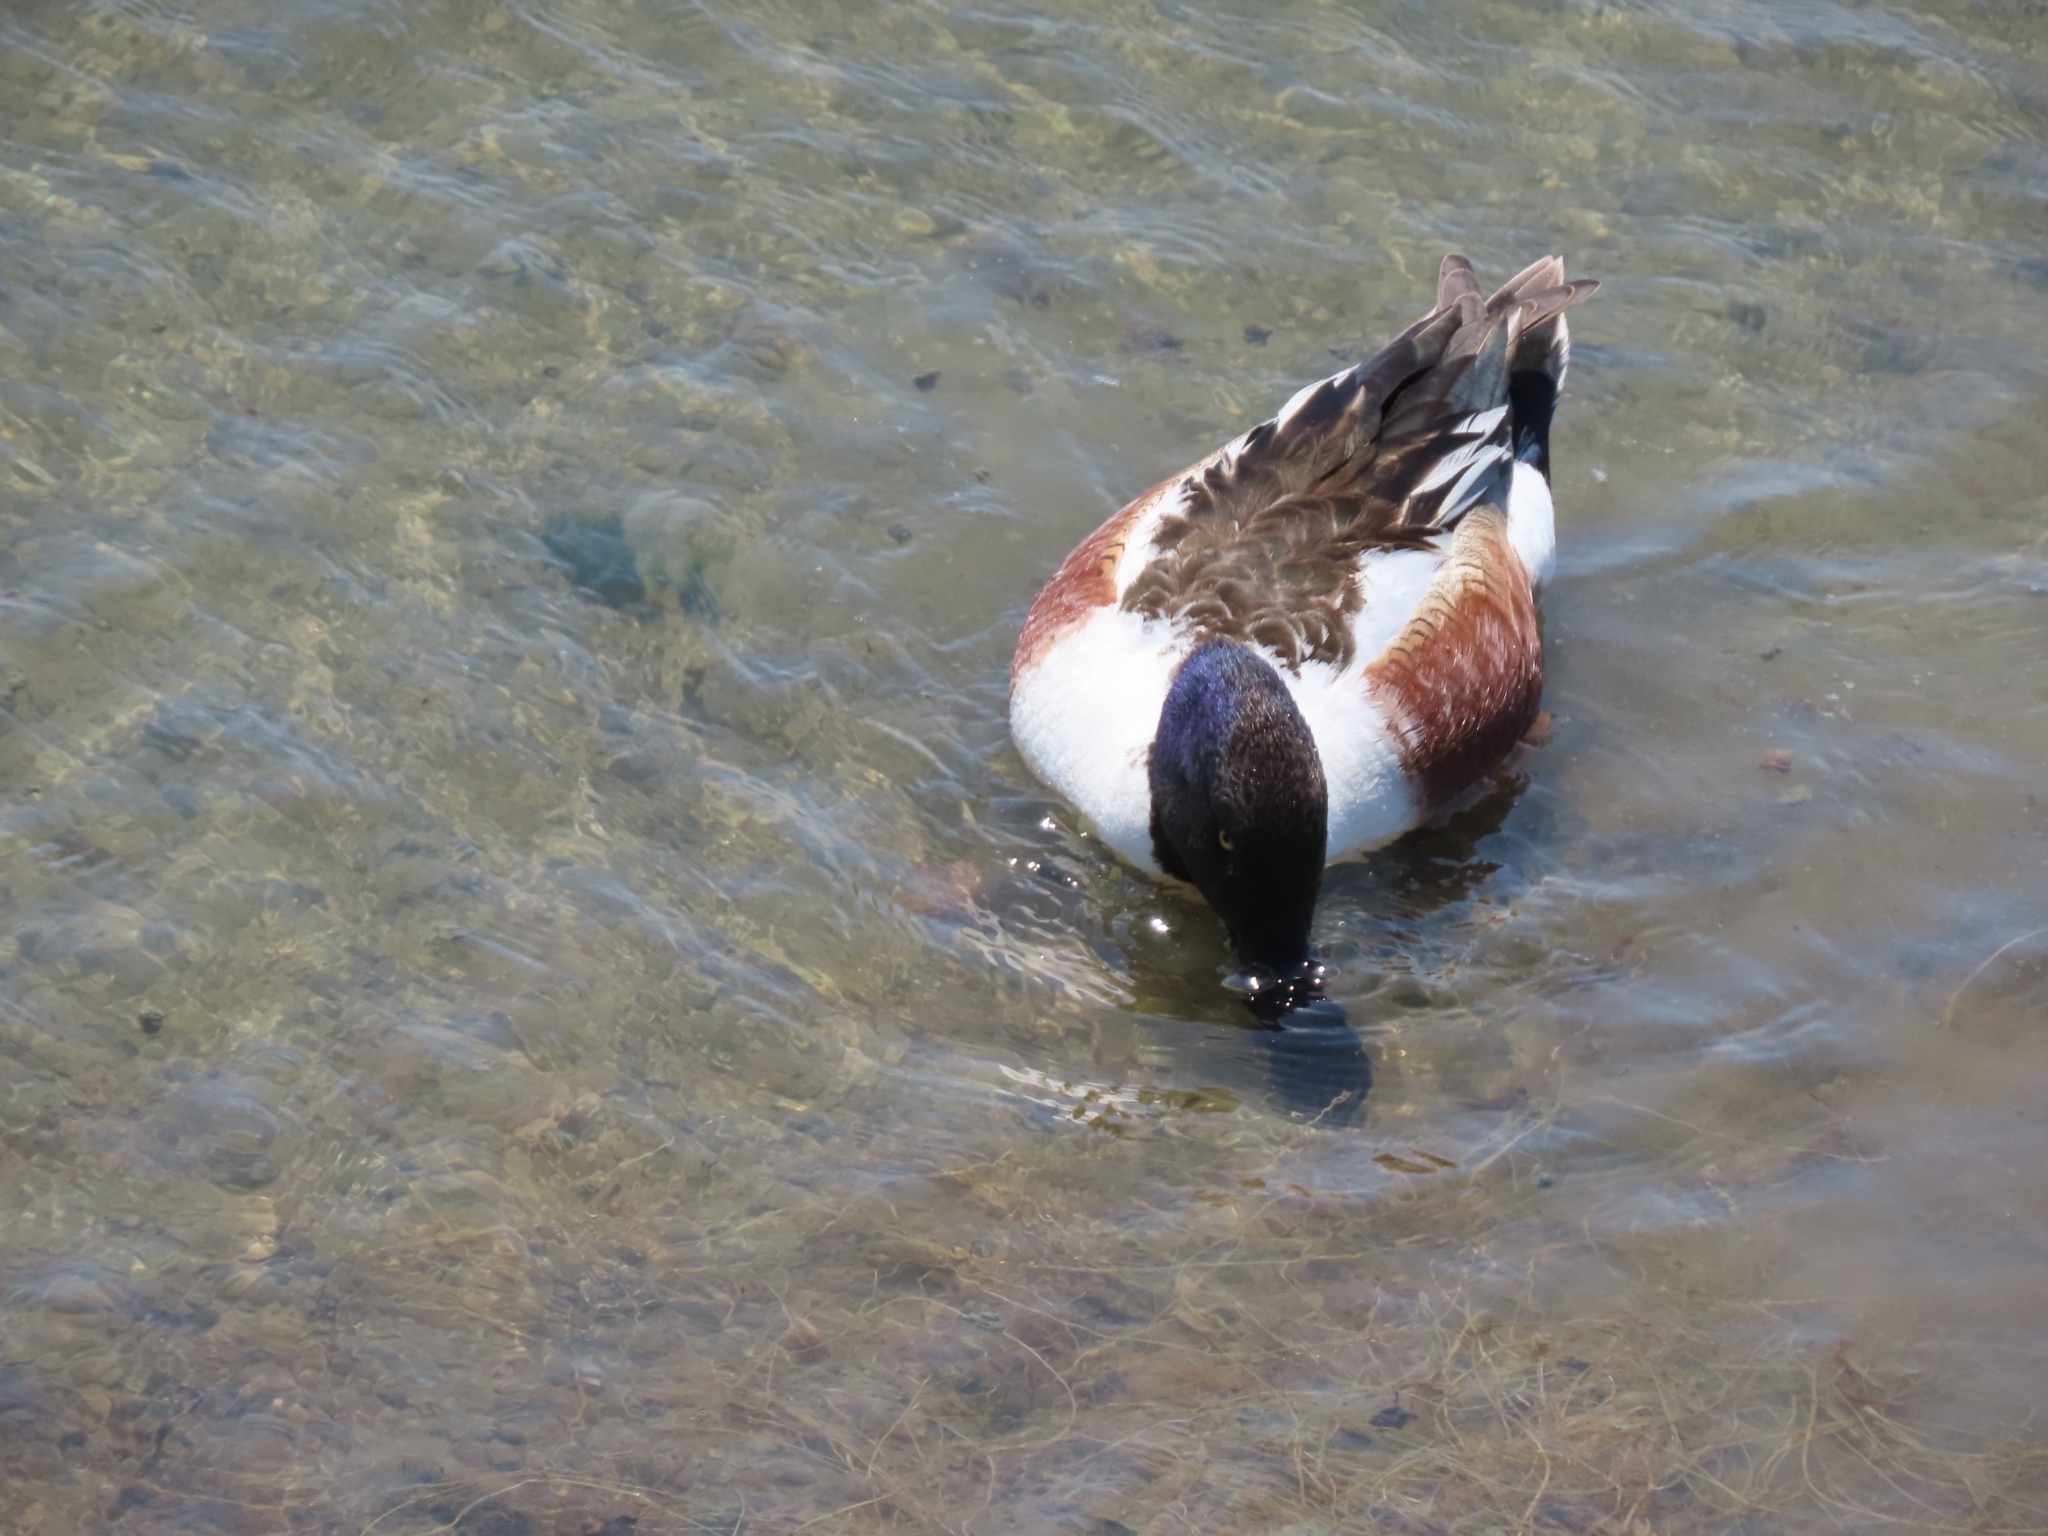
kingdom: Animalia
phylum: Chordata
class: Aves
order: Anseriformes
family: Anatidae
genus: Spatula
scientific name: Spatula clypeata
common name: Northern shoveler
